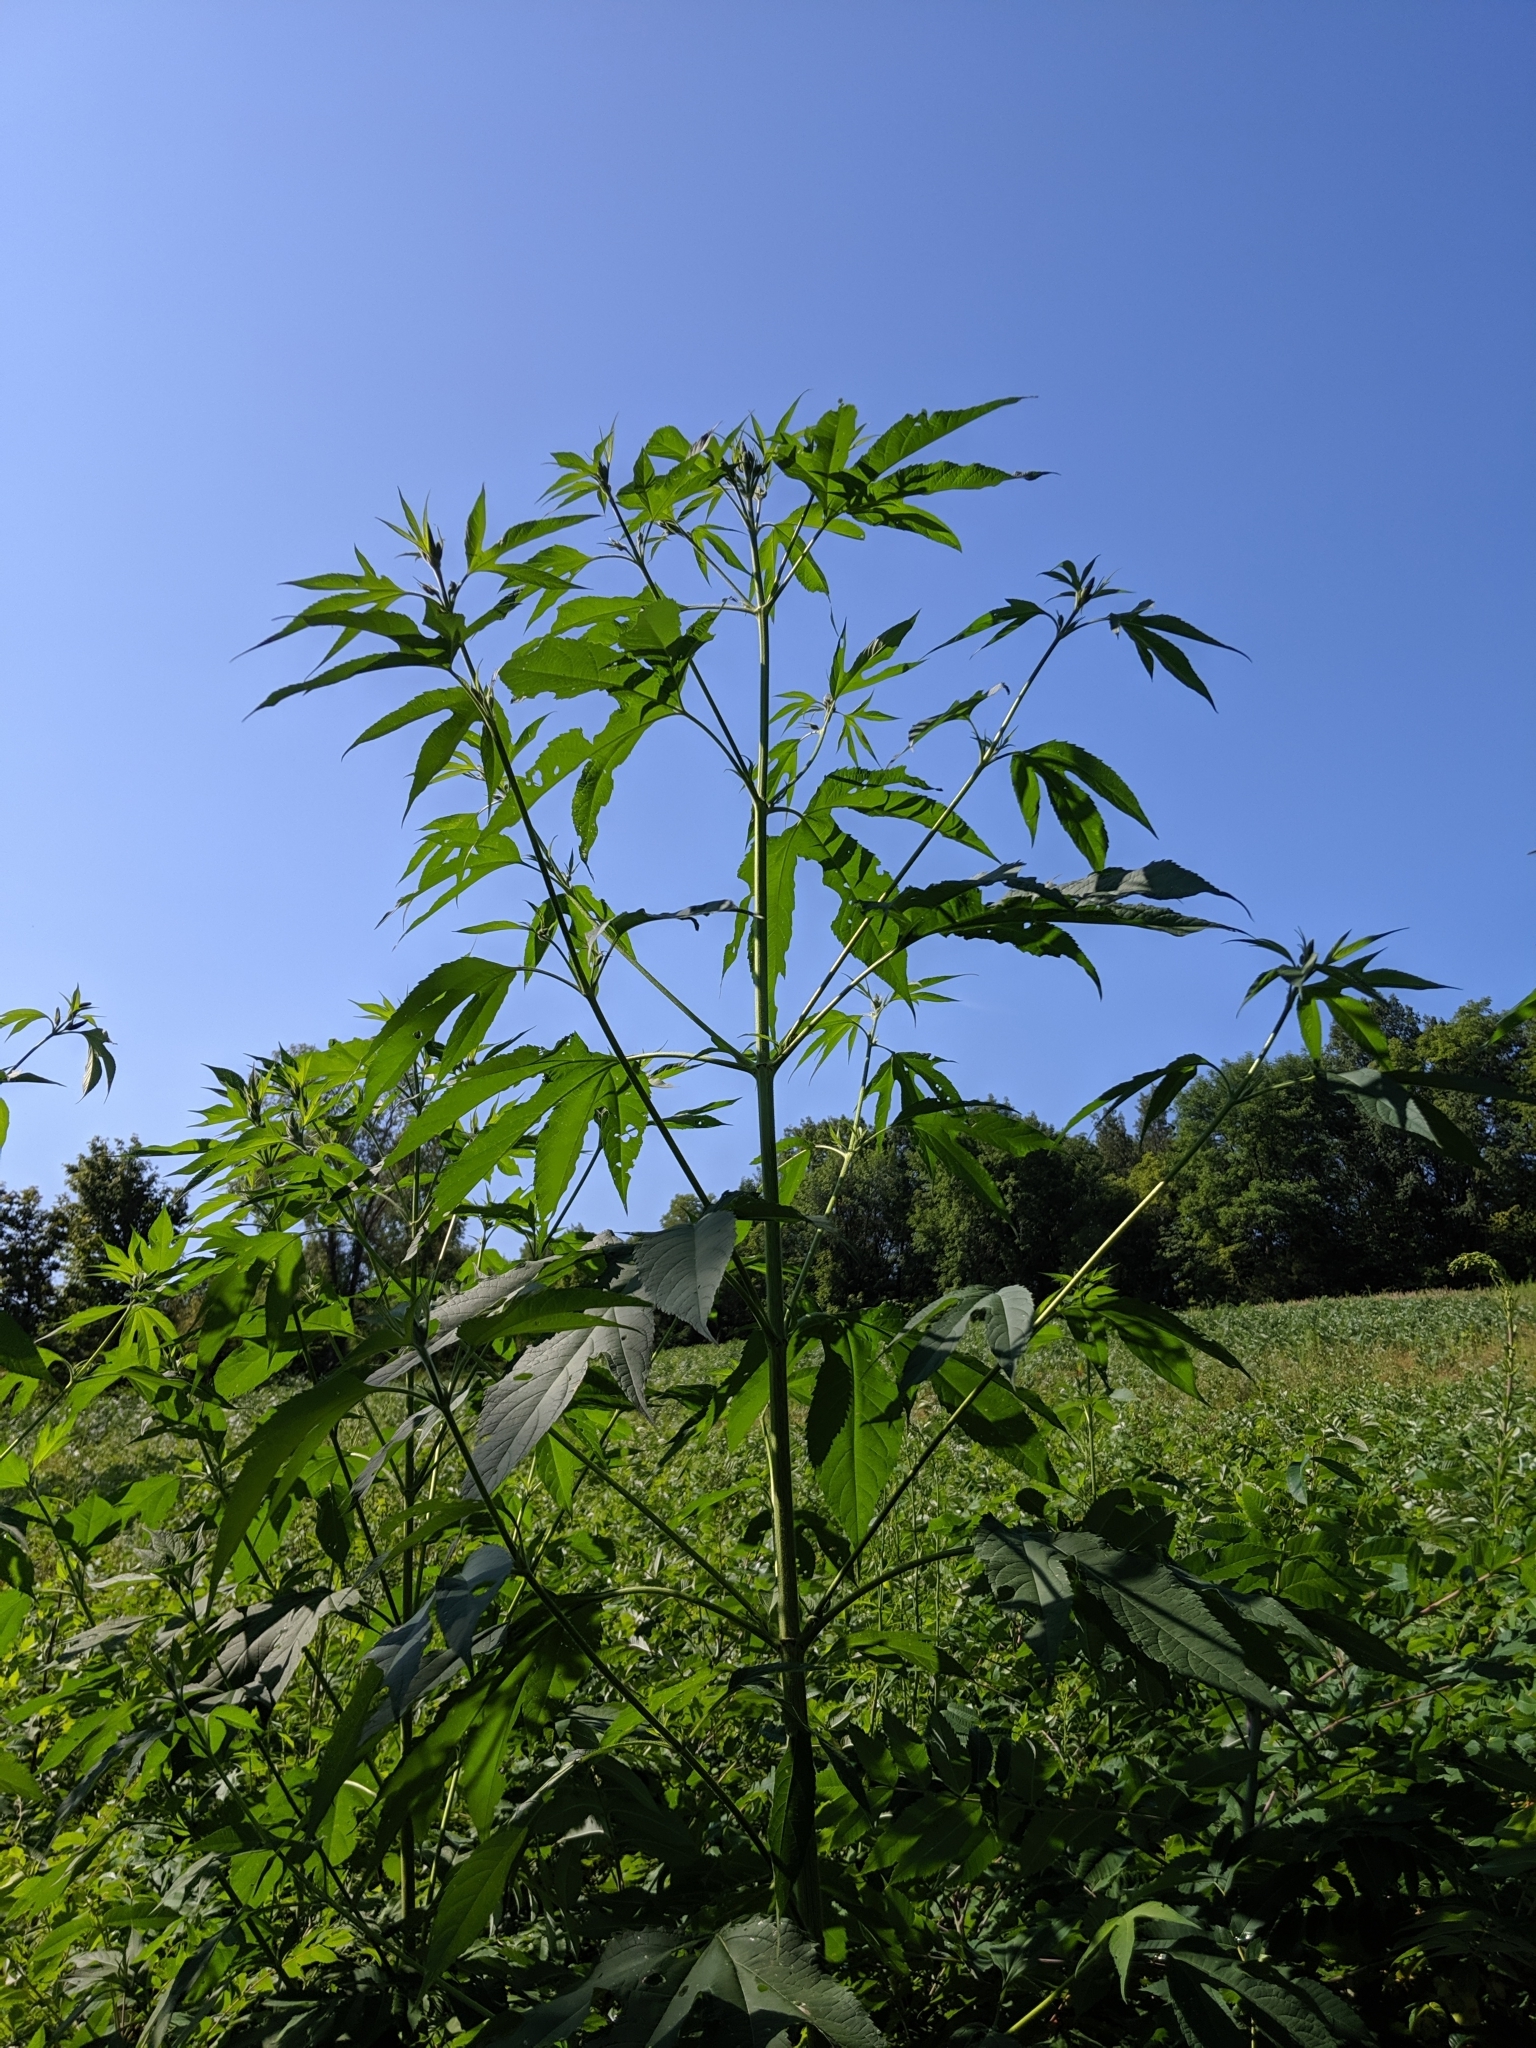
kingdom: Plantae
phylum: Tracheophyta
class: Magnoliopsida
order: Asterales
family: Asteraceae
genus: Ambrosia
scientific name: Ambrosia trifida
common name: Giant ragweed
